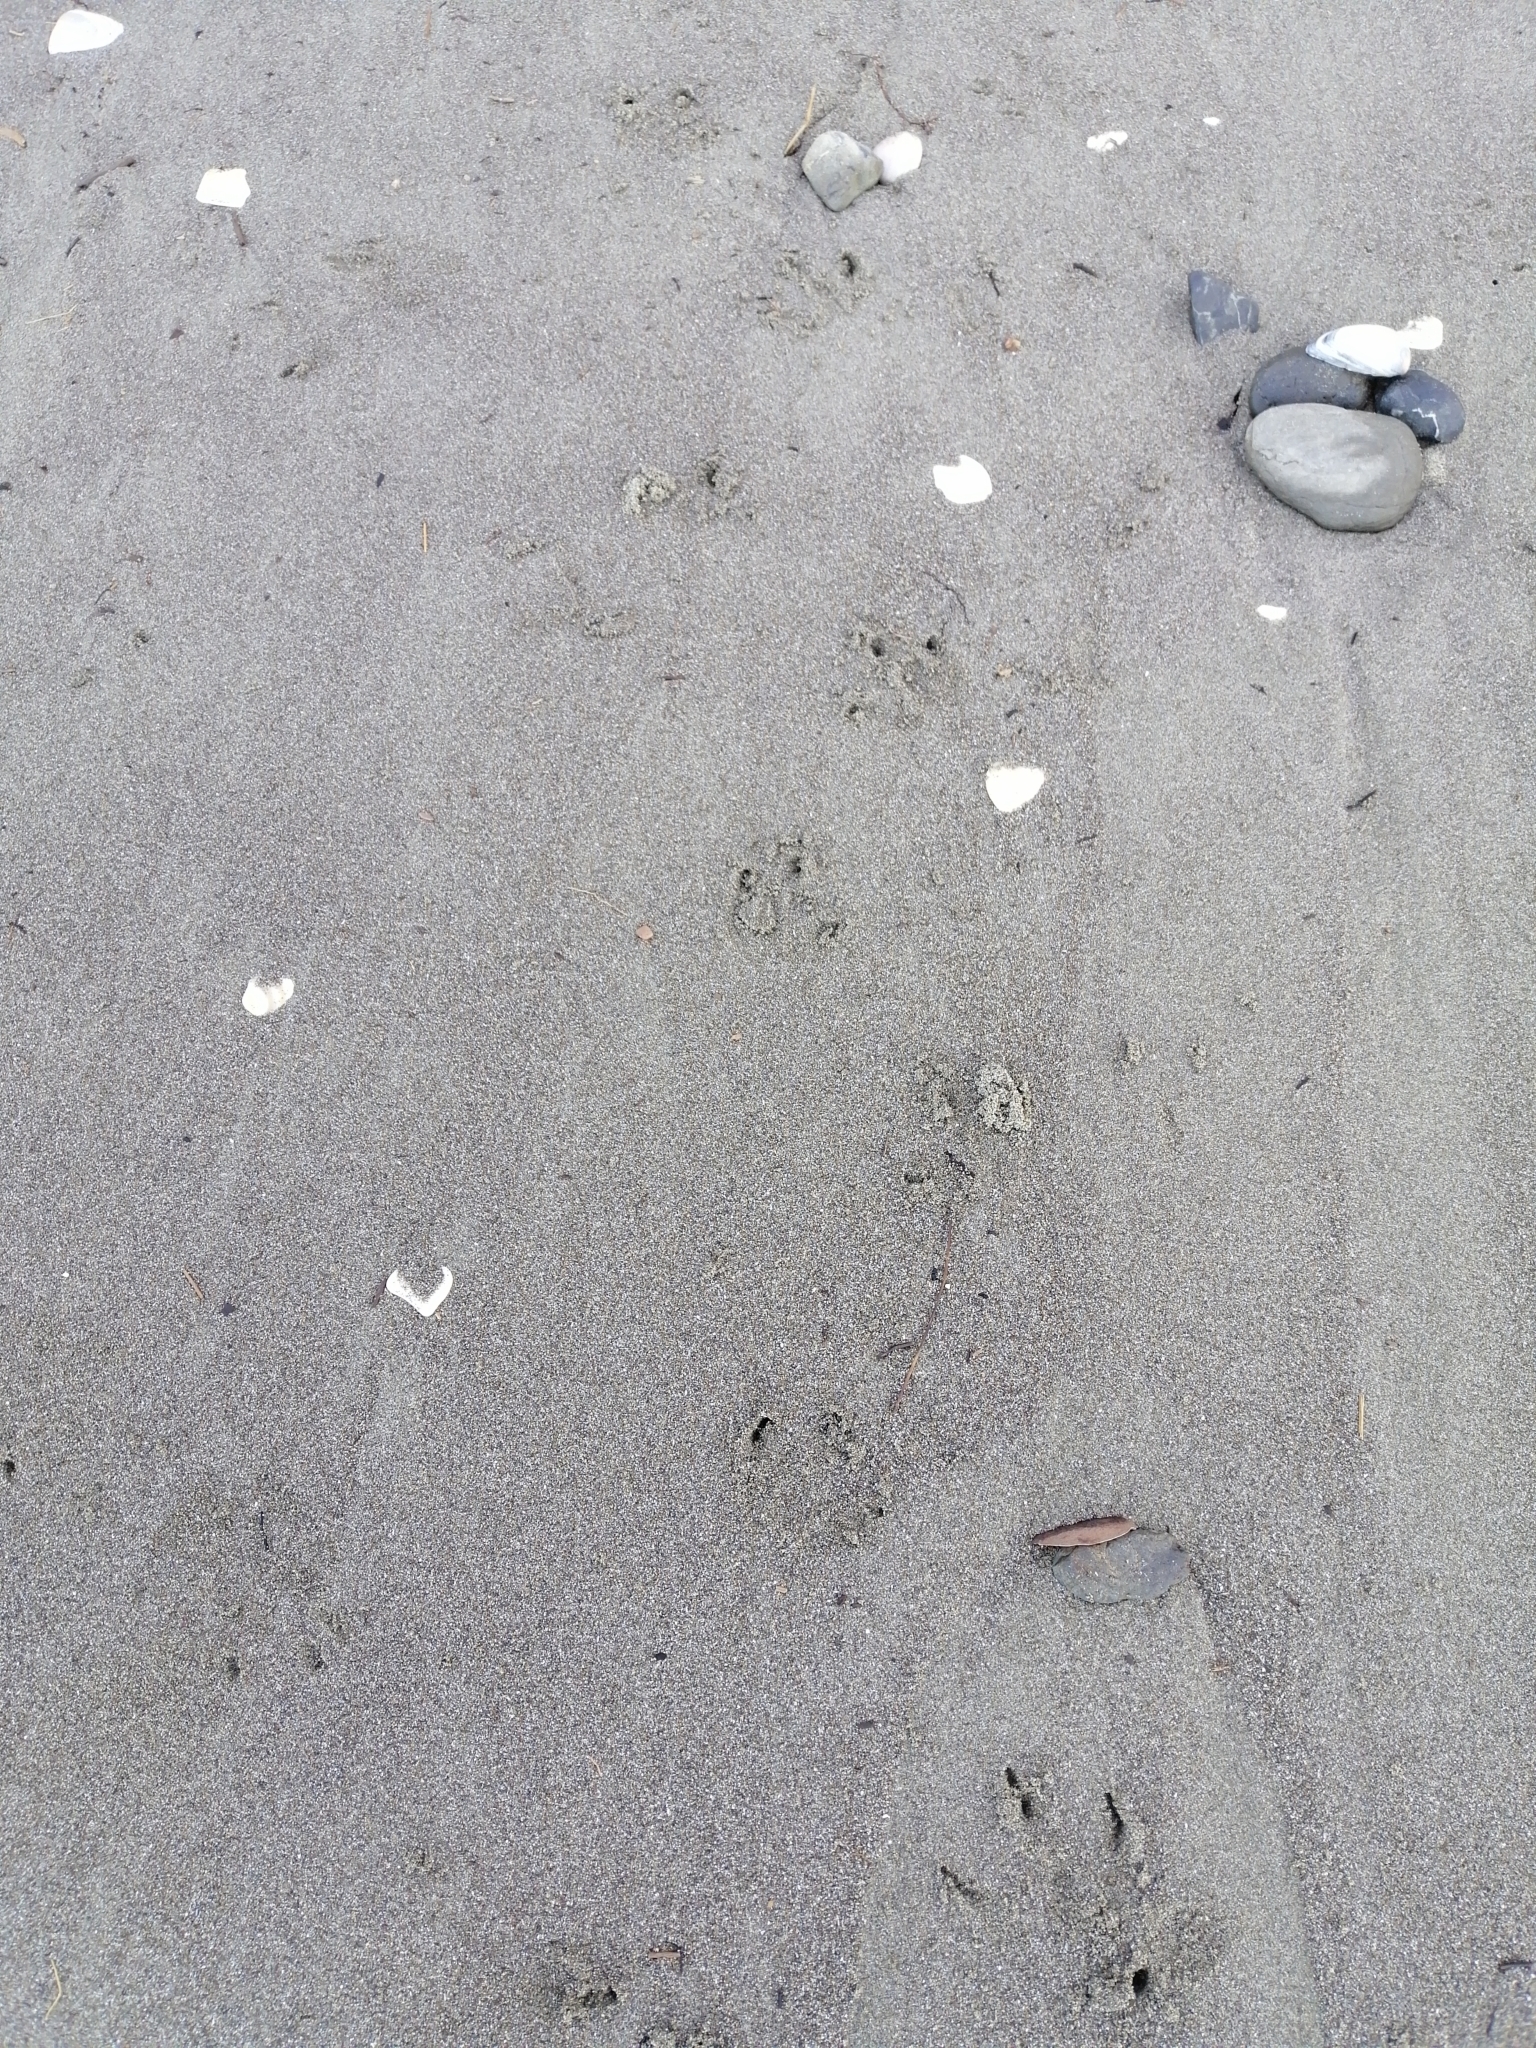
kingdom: Animalia
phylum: Chordata
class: Aves
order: Sphenisciformes
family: Spheniscidae
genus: Eudyptula
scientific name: Eudyptula minor
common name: Little penguin
